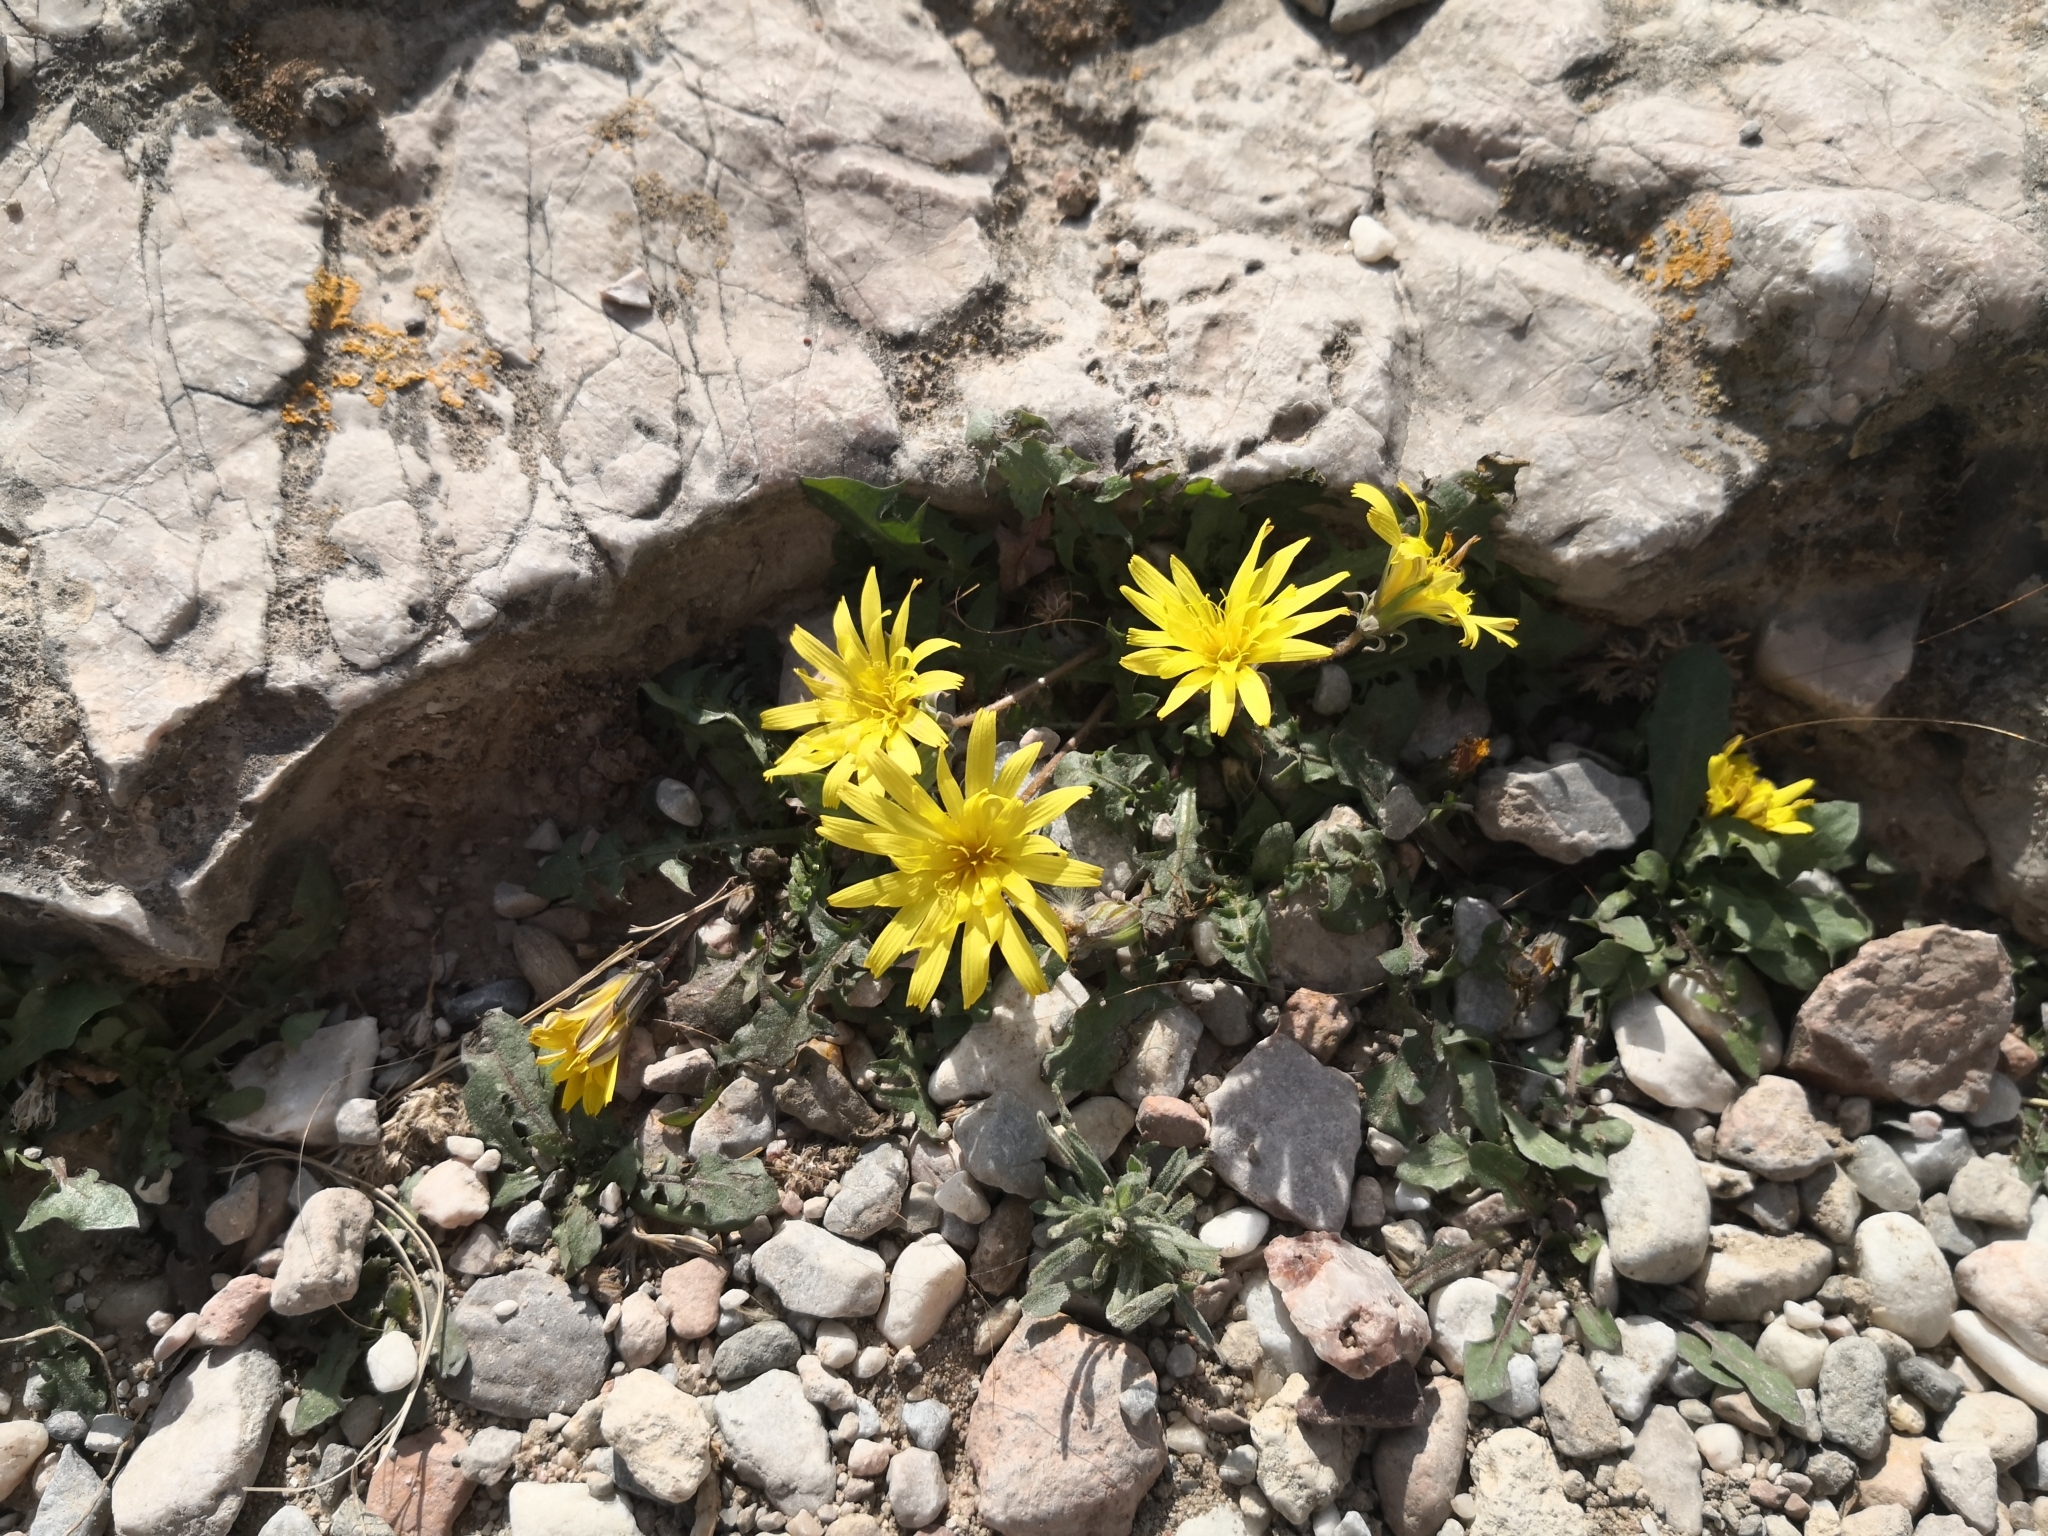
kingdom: Plantae
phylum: Tracheophyta
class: Magnoliopsida
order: Asterales
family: Asteraceae
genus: Taraxacum
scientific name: Taraxacum minimum
